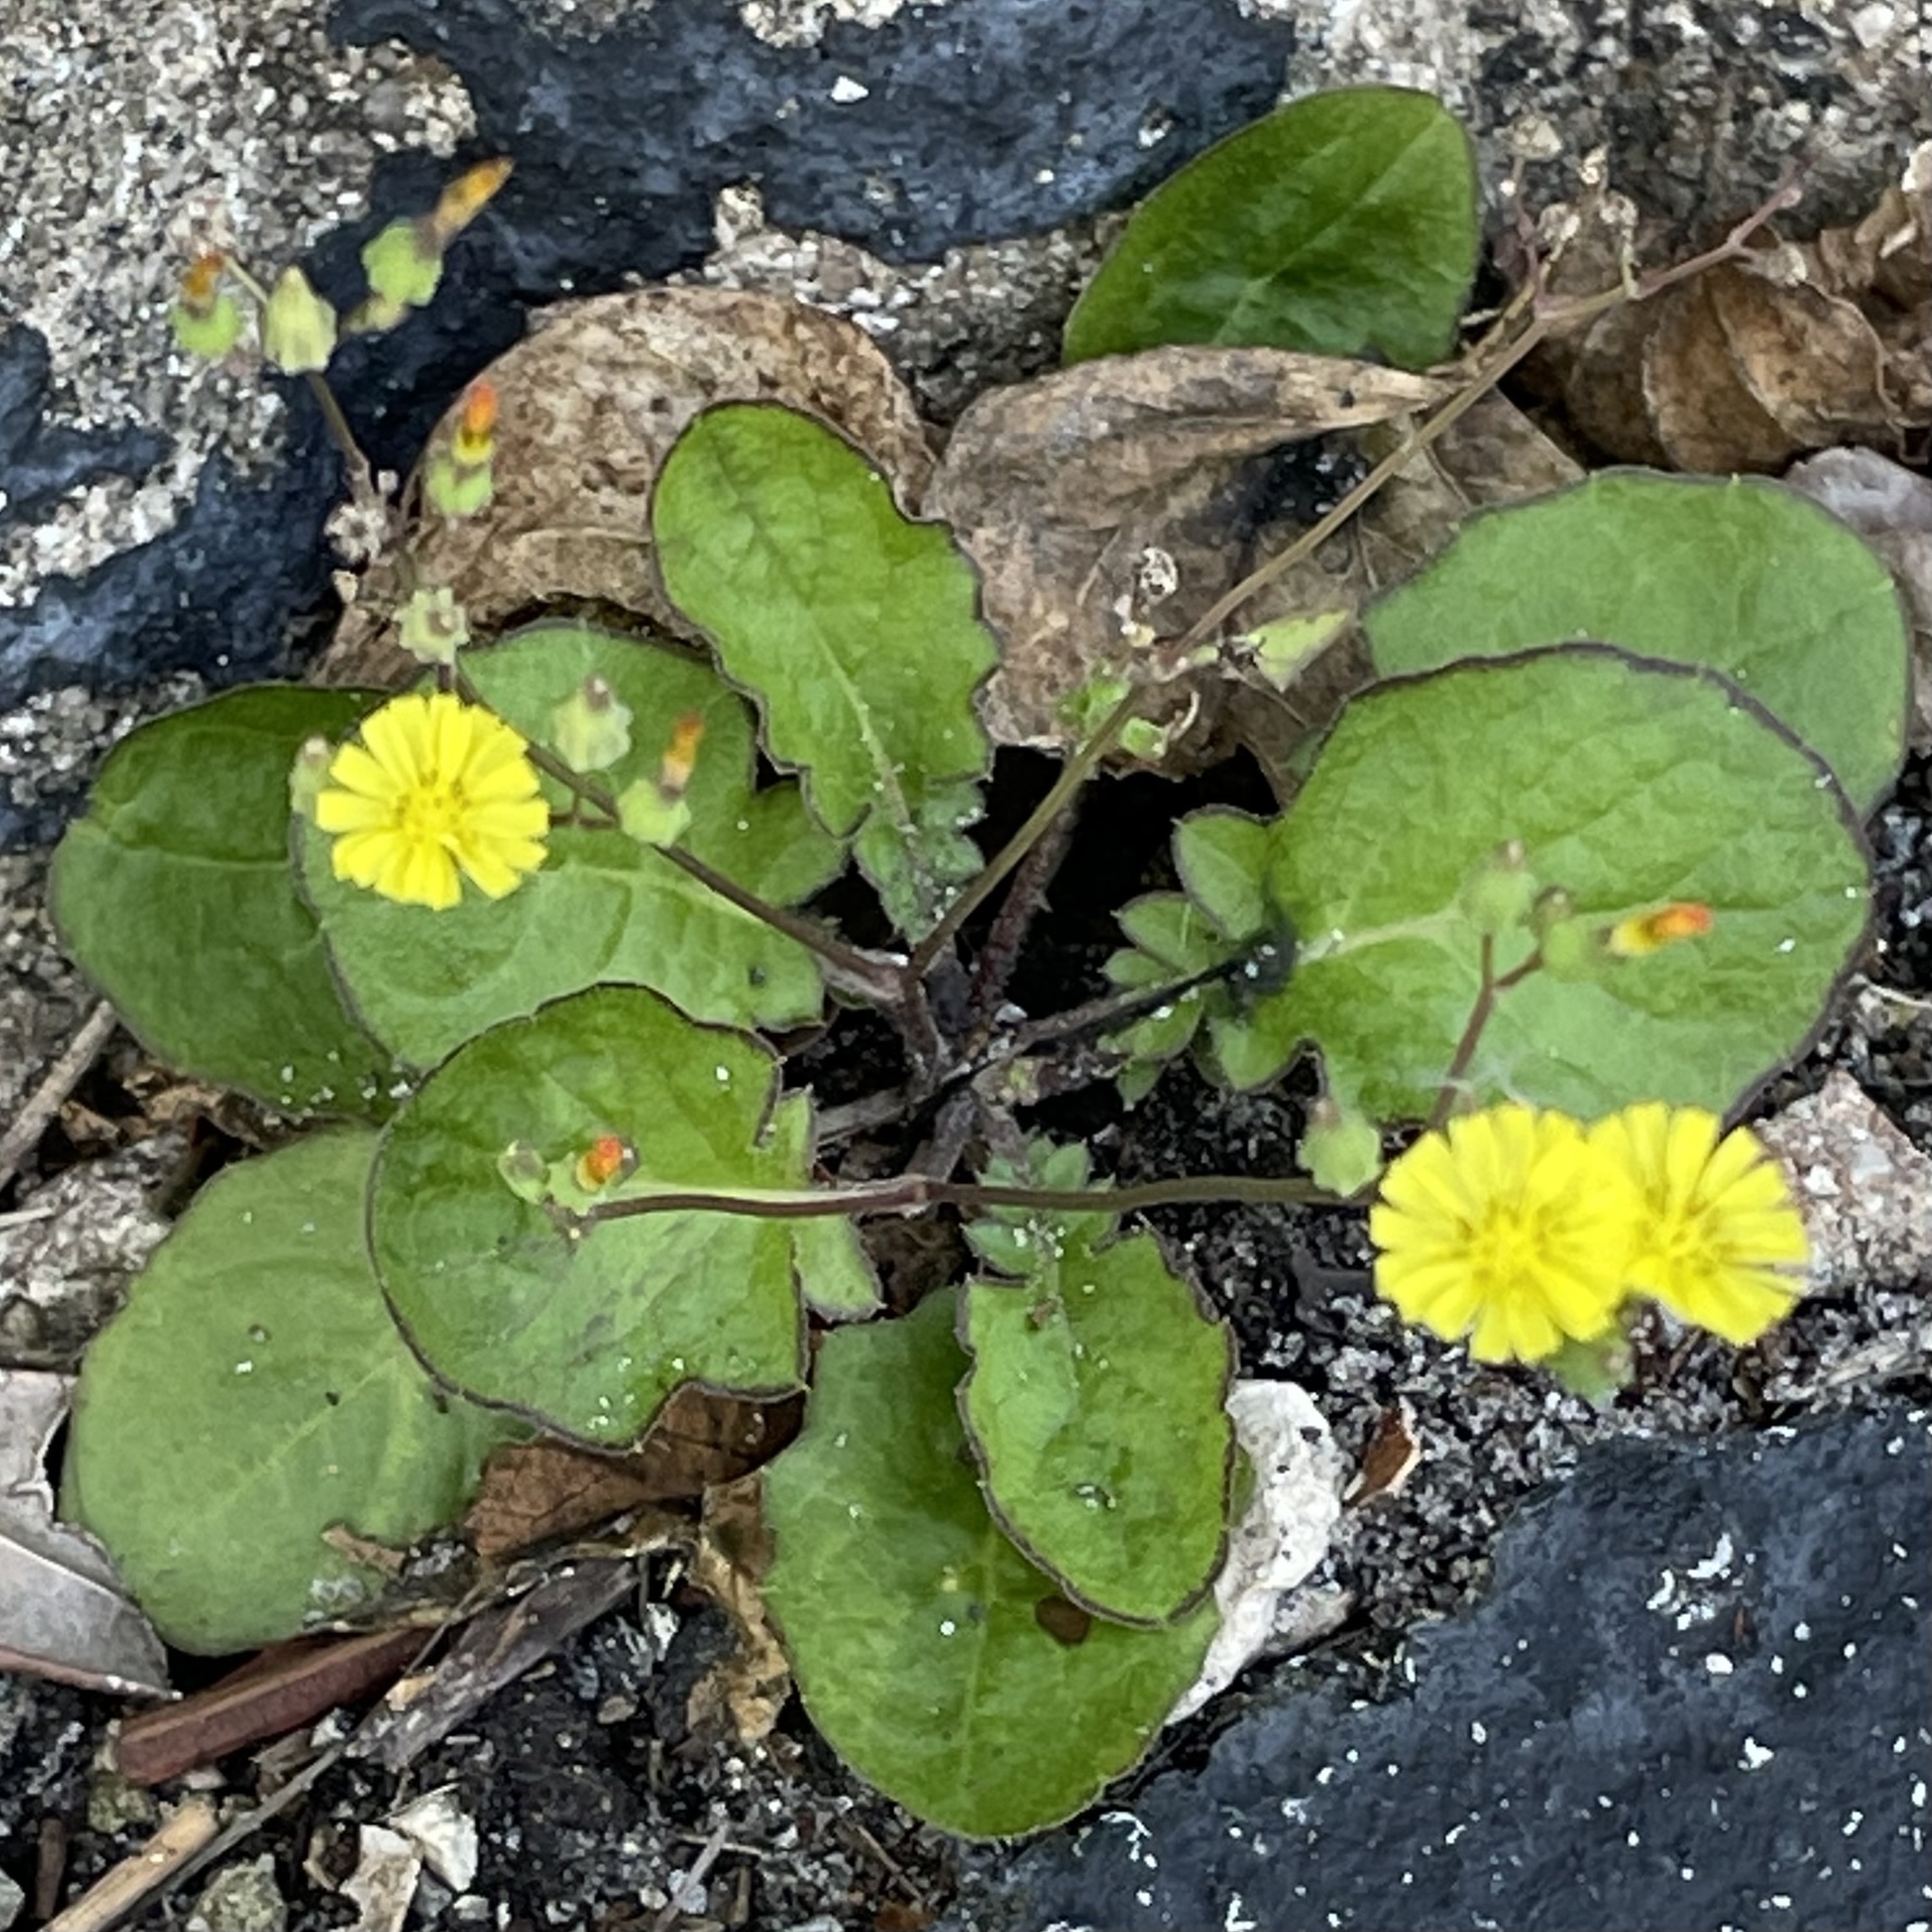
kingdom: Plantae
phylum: Tracheophyta
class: Magnoliopsida
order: Asterales
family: Asteraceae
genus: Youngia
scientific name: Youngia japonica
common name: Oriental false hawksbeard
